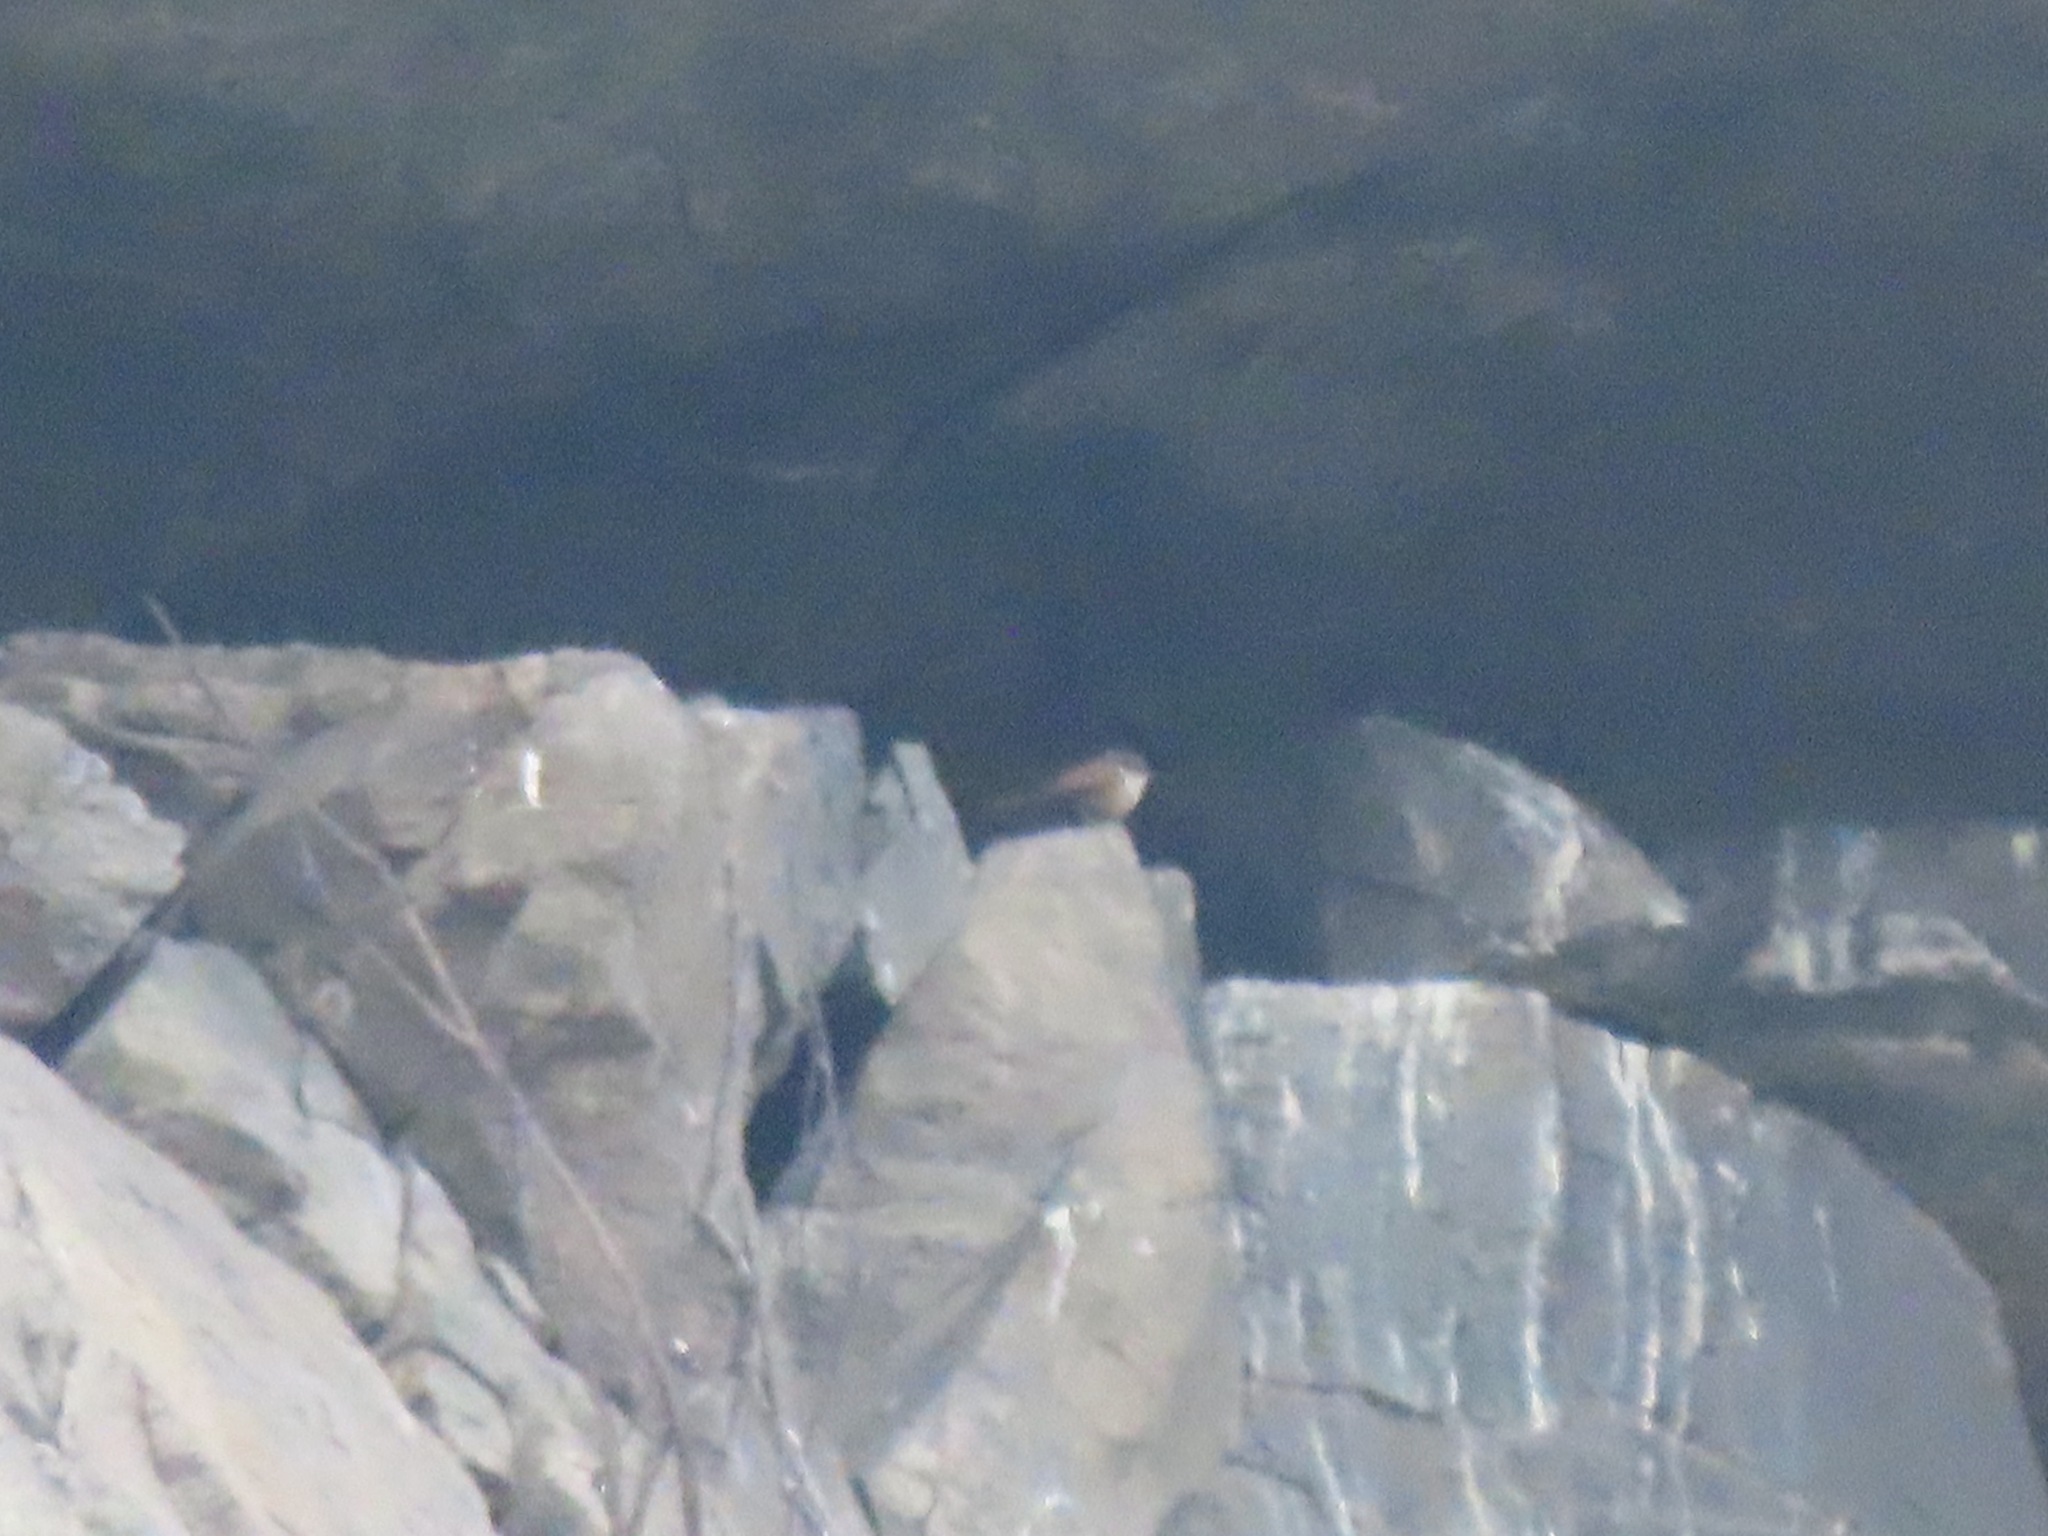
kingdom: Animalia
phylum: Chordata
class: Aves
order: Passeriformes
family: Troglodytidae
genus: Catherpes
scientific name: Catherpes mexicanus
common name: Canyon wren
